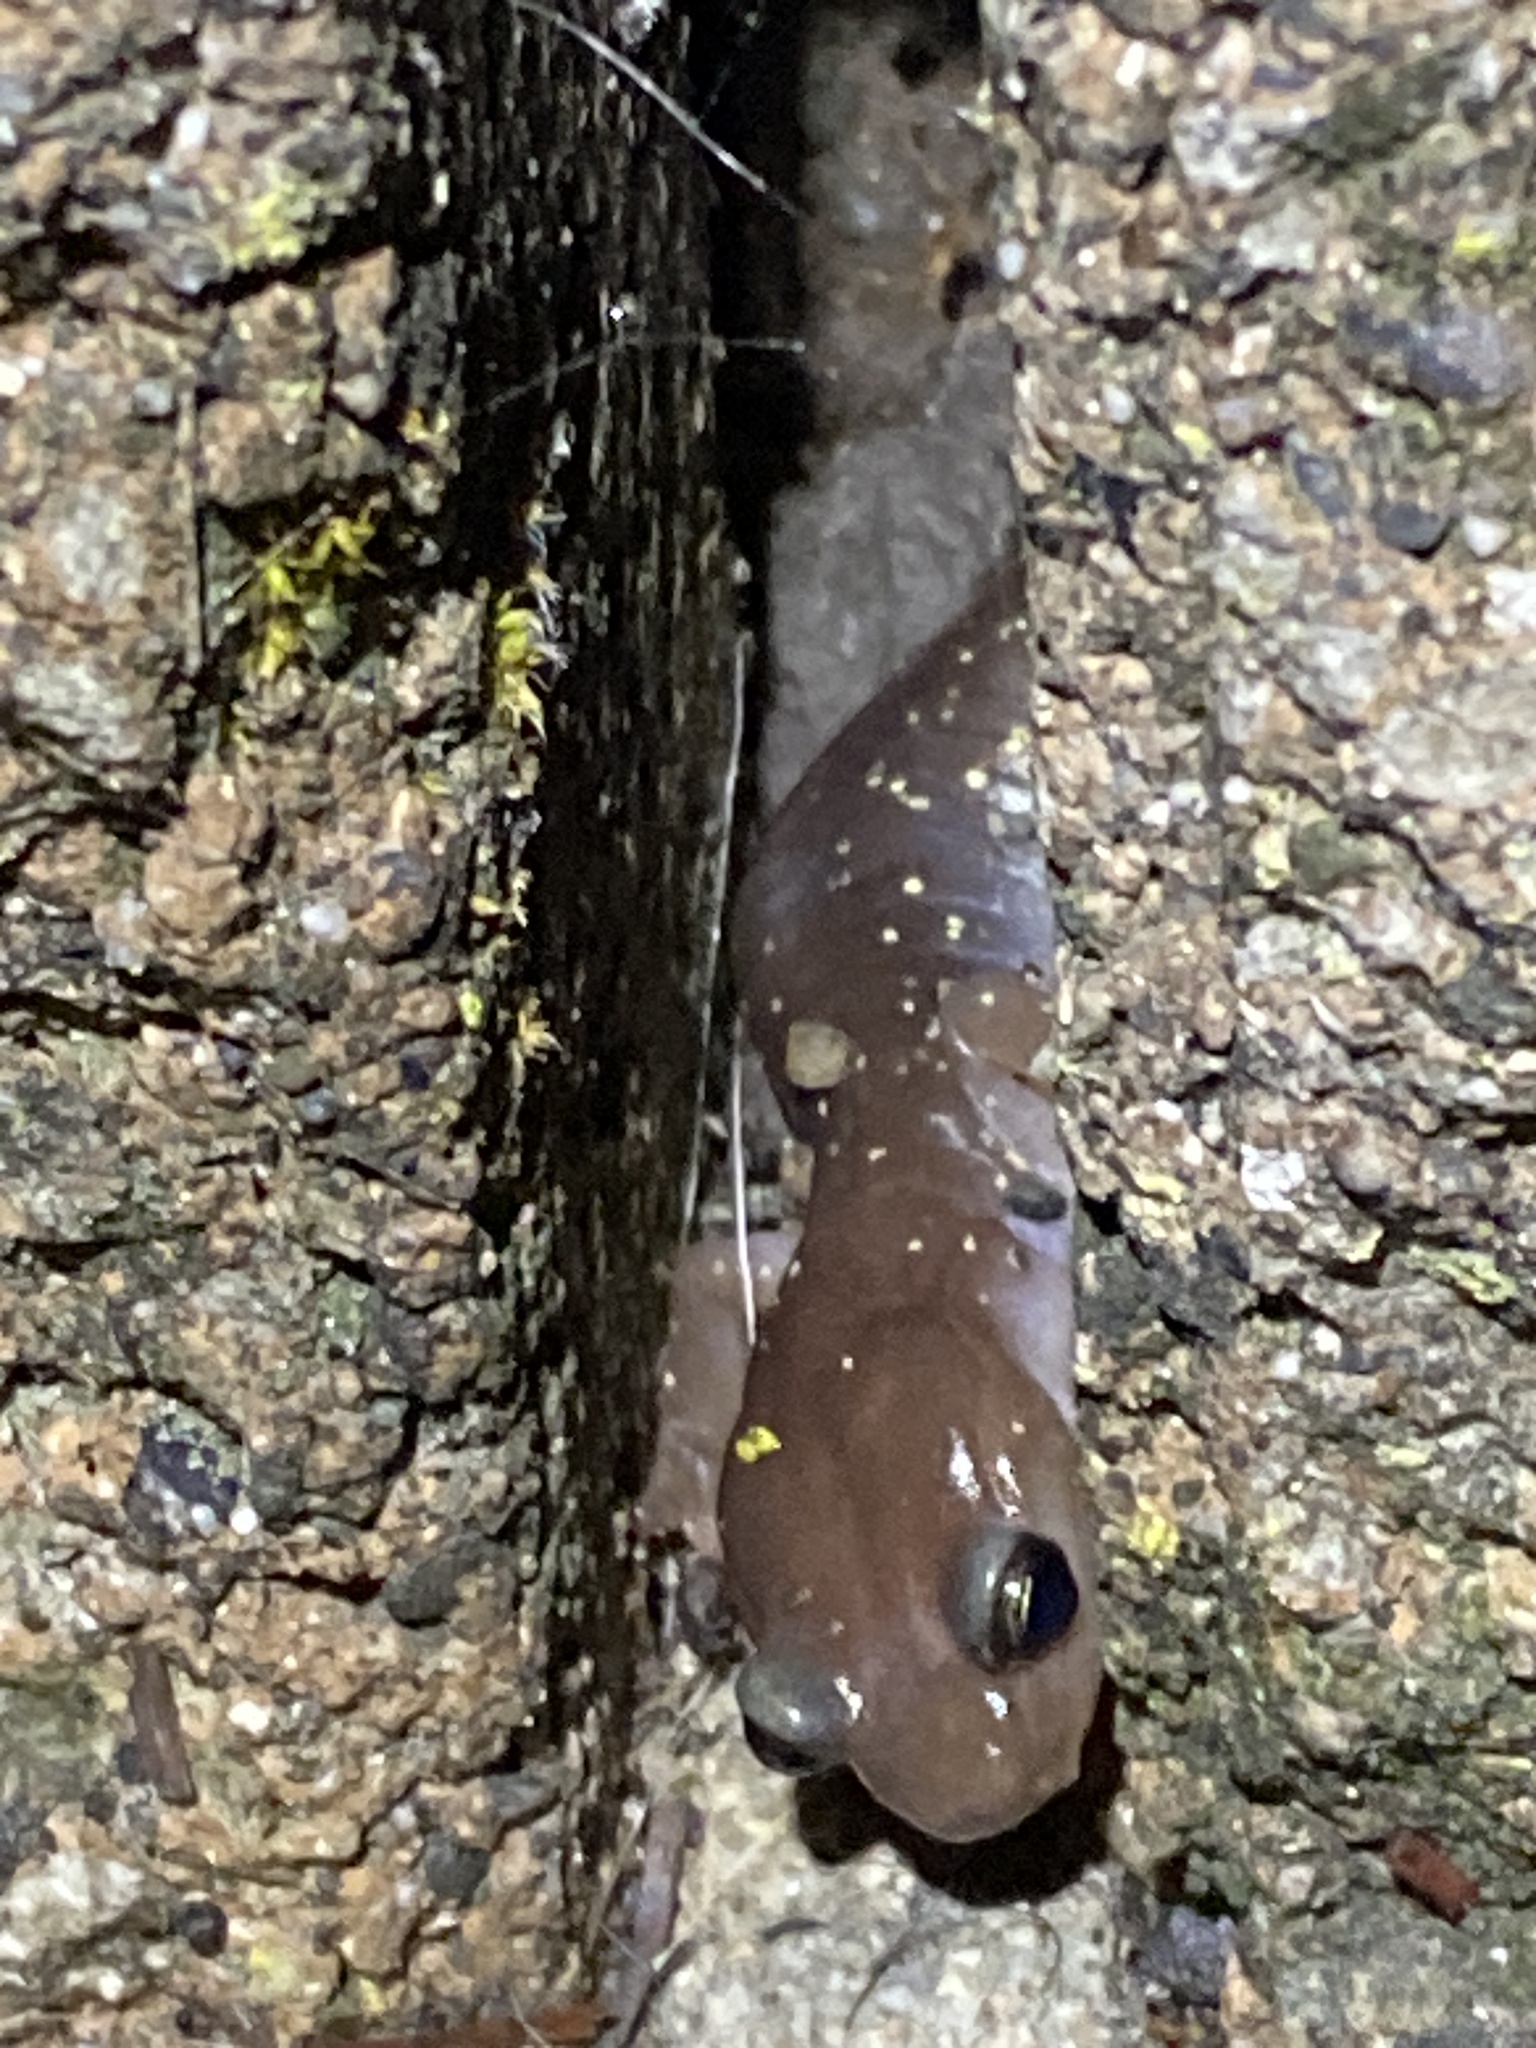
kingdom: Animalia
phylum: Chordata
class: Amphibia
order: Caudata
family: Plethodontidae
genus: Aneides
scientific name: Aneides lugubris
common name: Arboreal salamander
